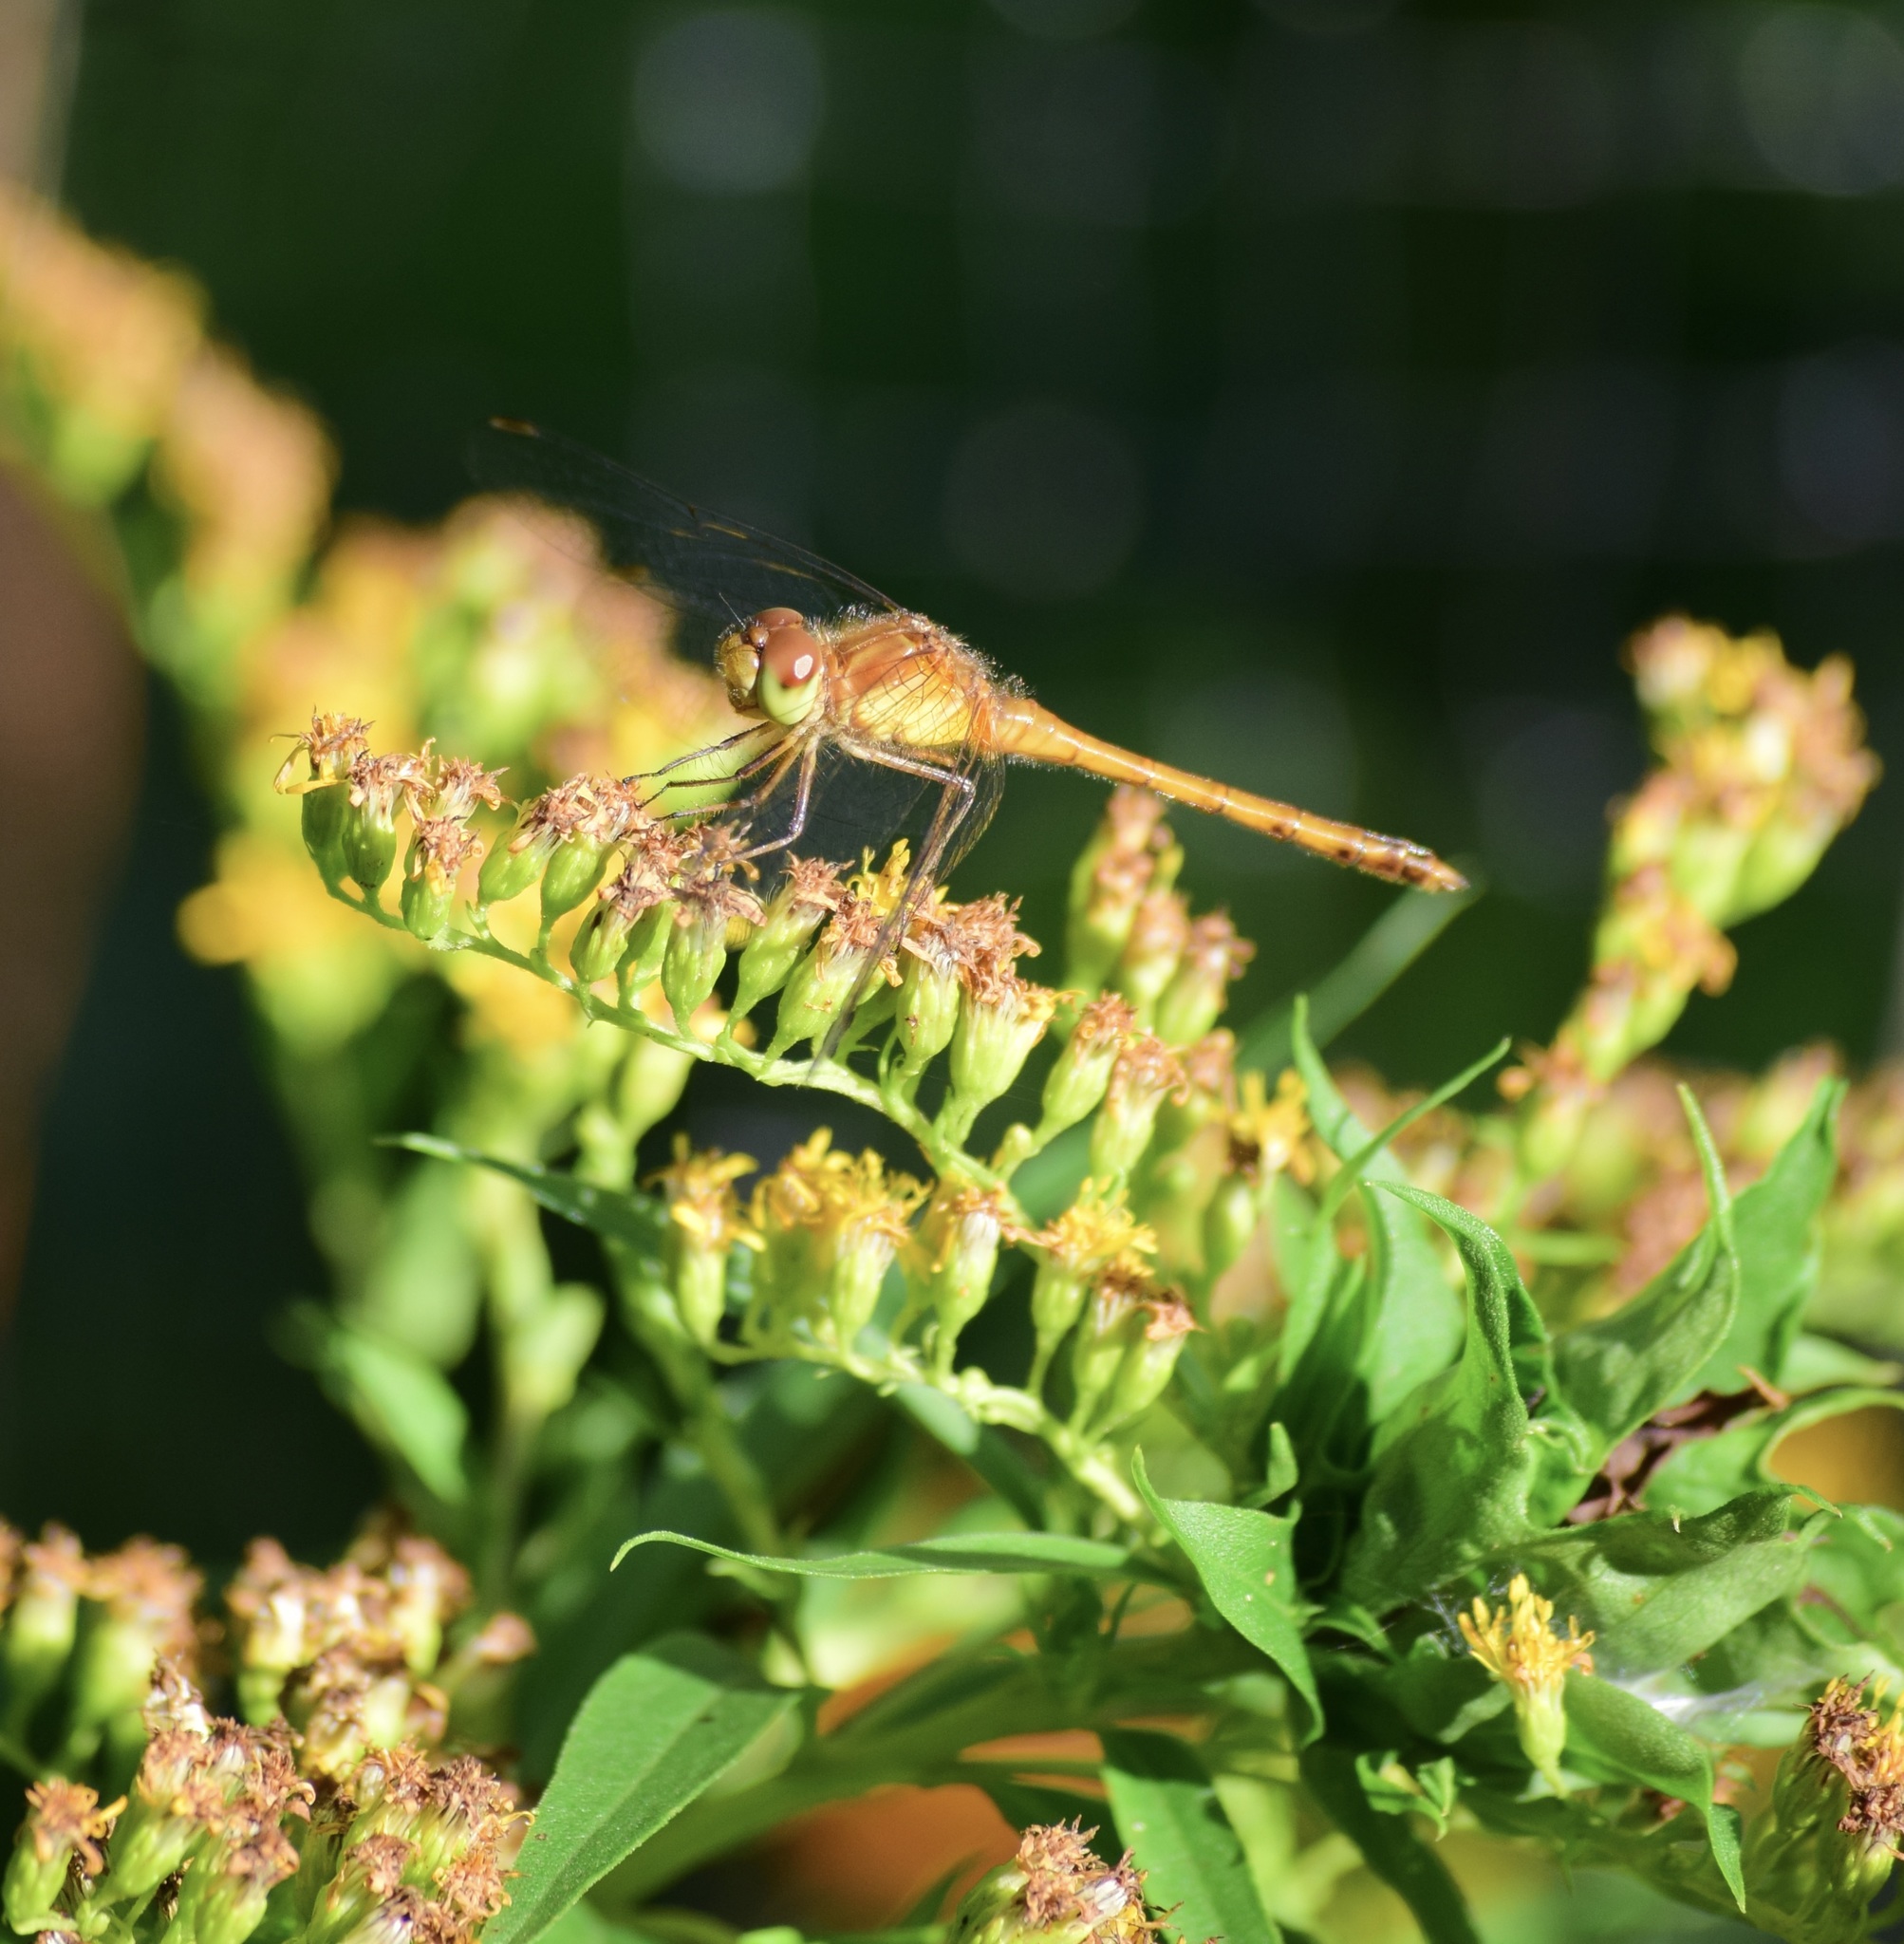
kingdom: Animalia
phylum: Arthropoda
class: Insecta
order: Odonata
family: Libellulidae
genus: Sympetrum
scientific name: Sympetrum vicinum
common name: Autumn meadowhawk
